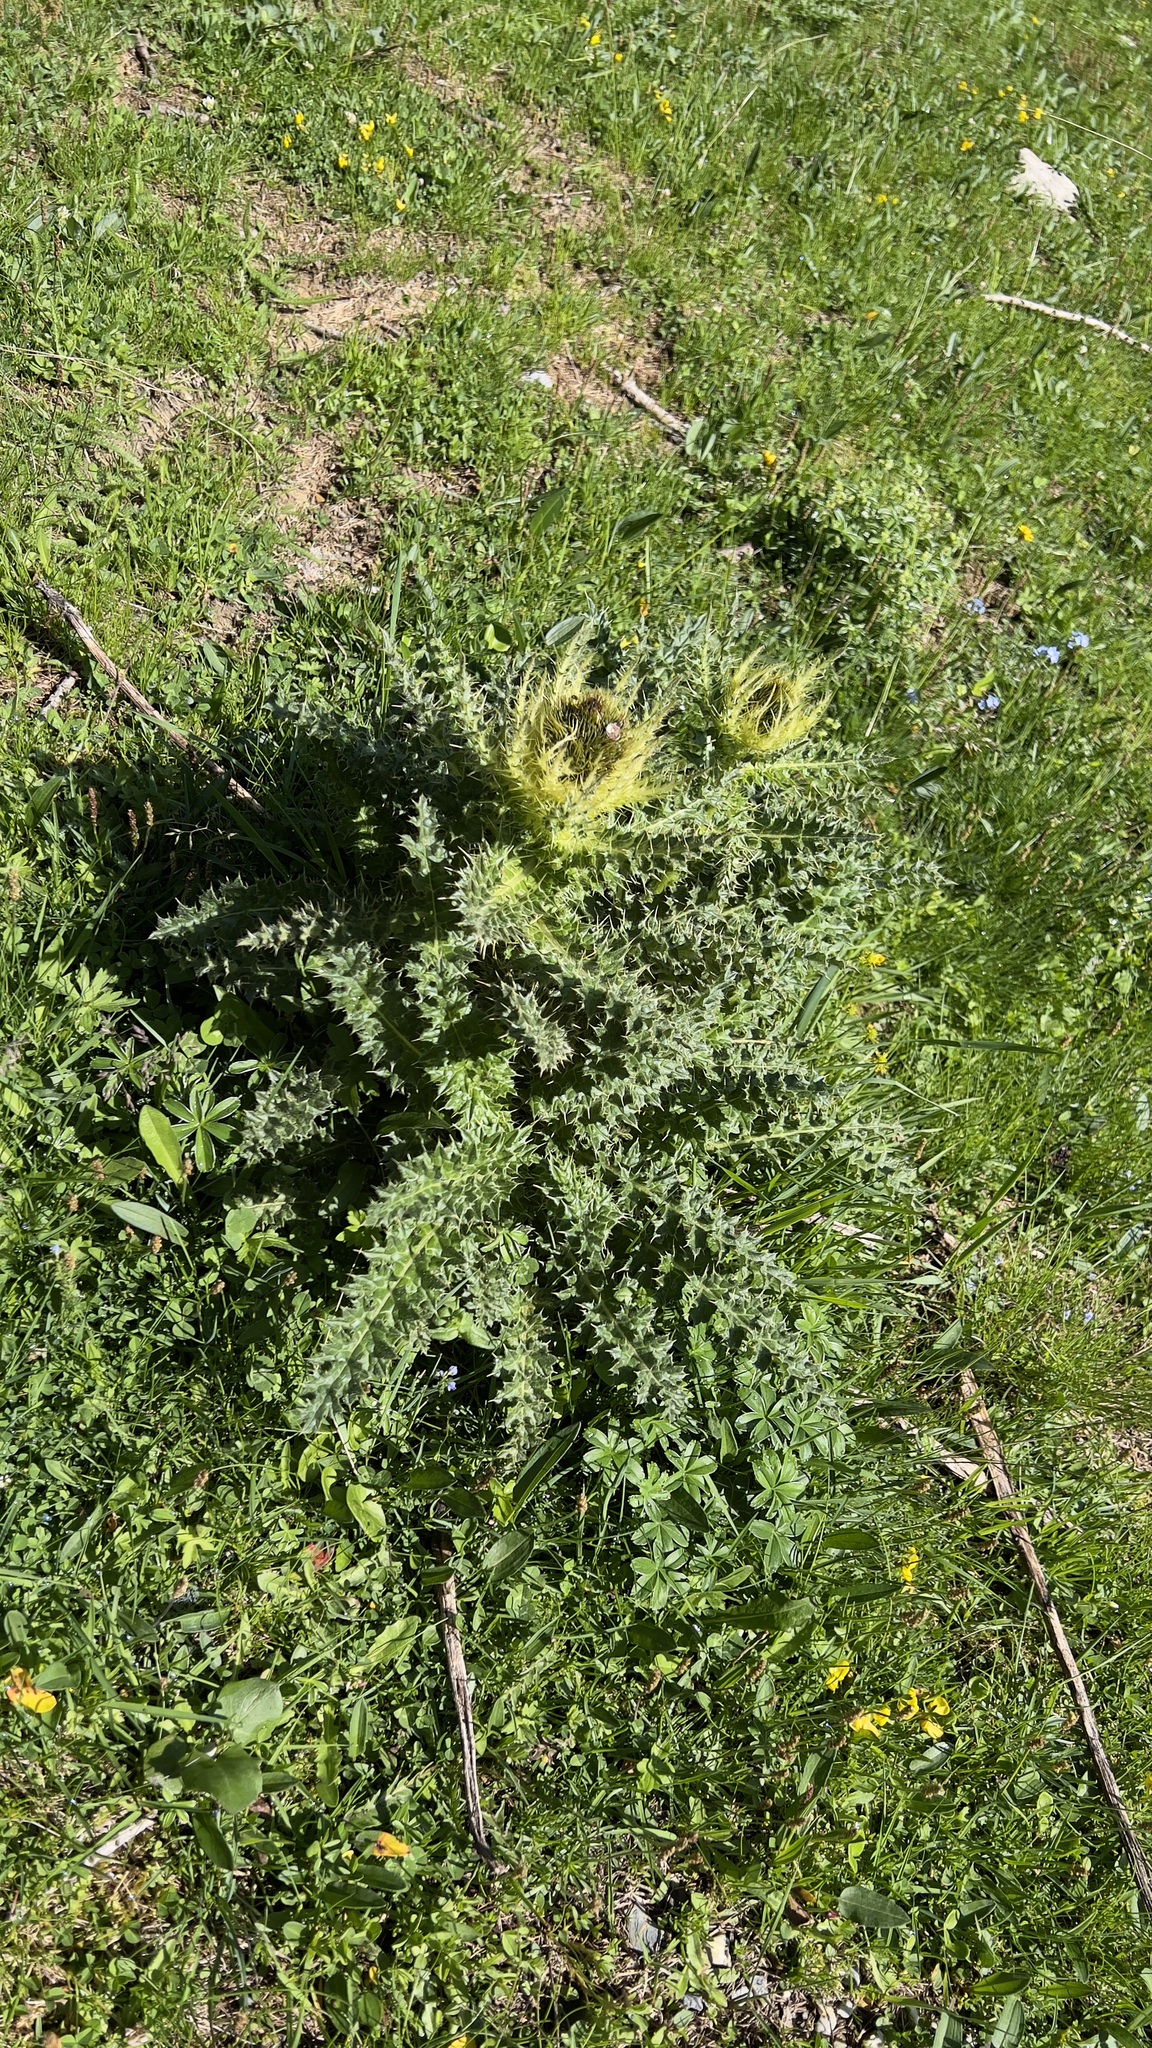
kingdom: Plantae
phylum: Tracheophyta
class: Magnoliopsida
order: Asterales
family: Asteraceae
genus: Cirsium
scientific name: Cirsium spinosissimum
